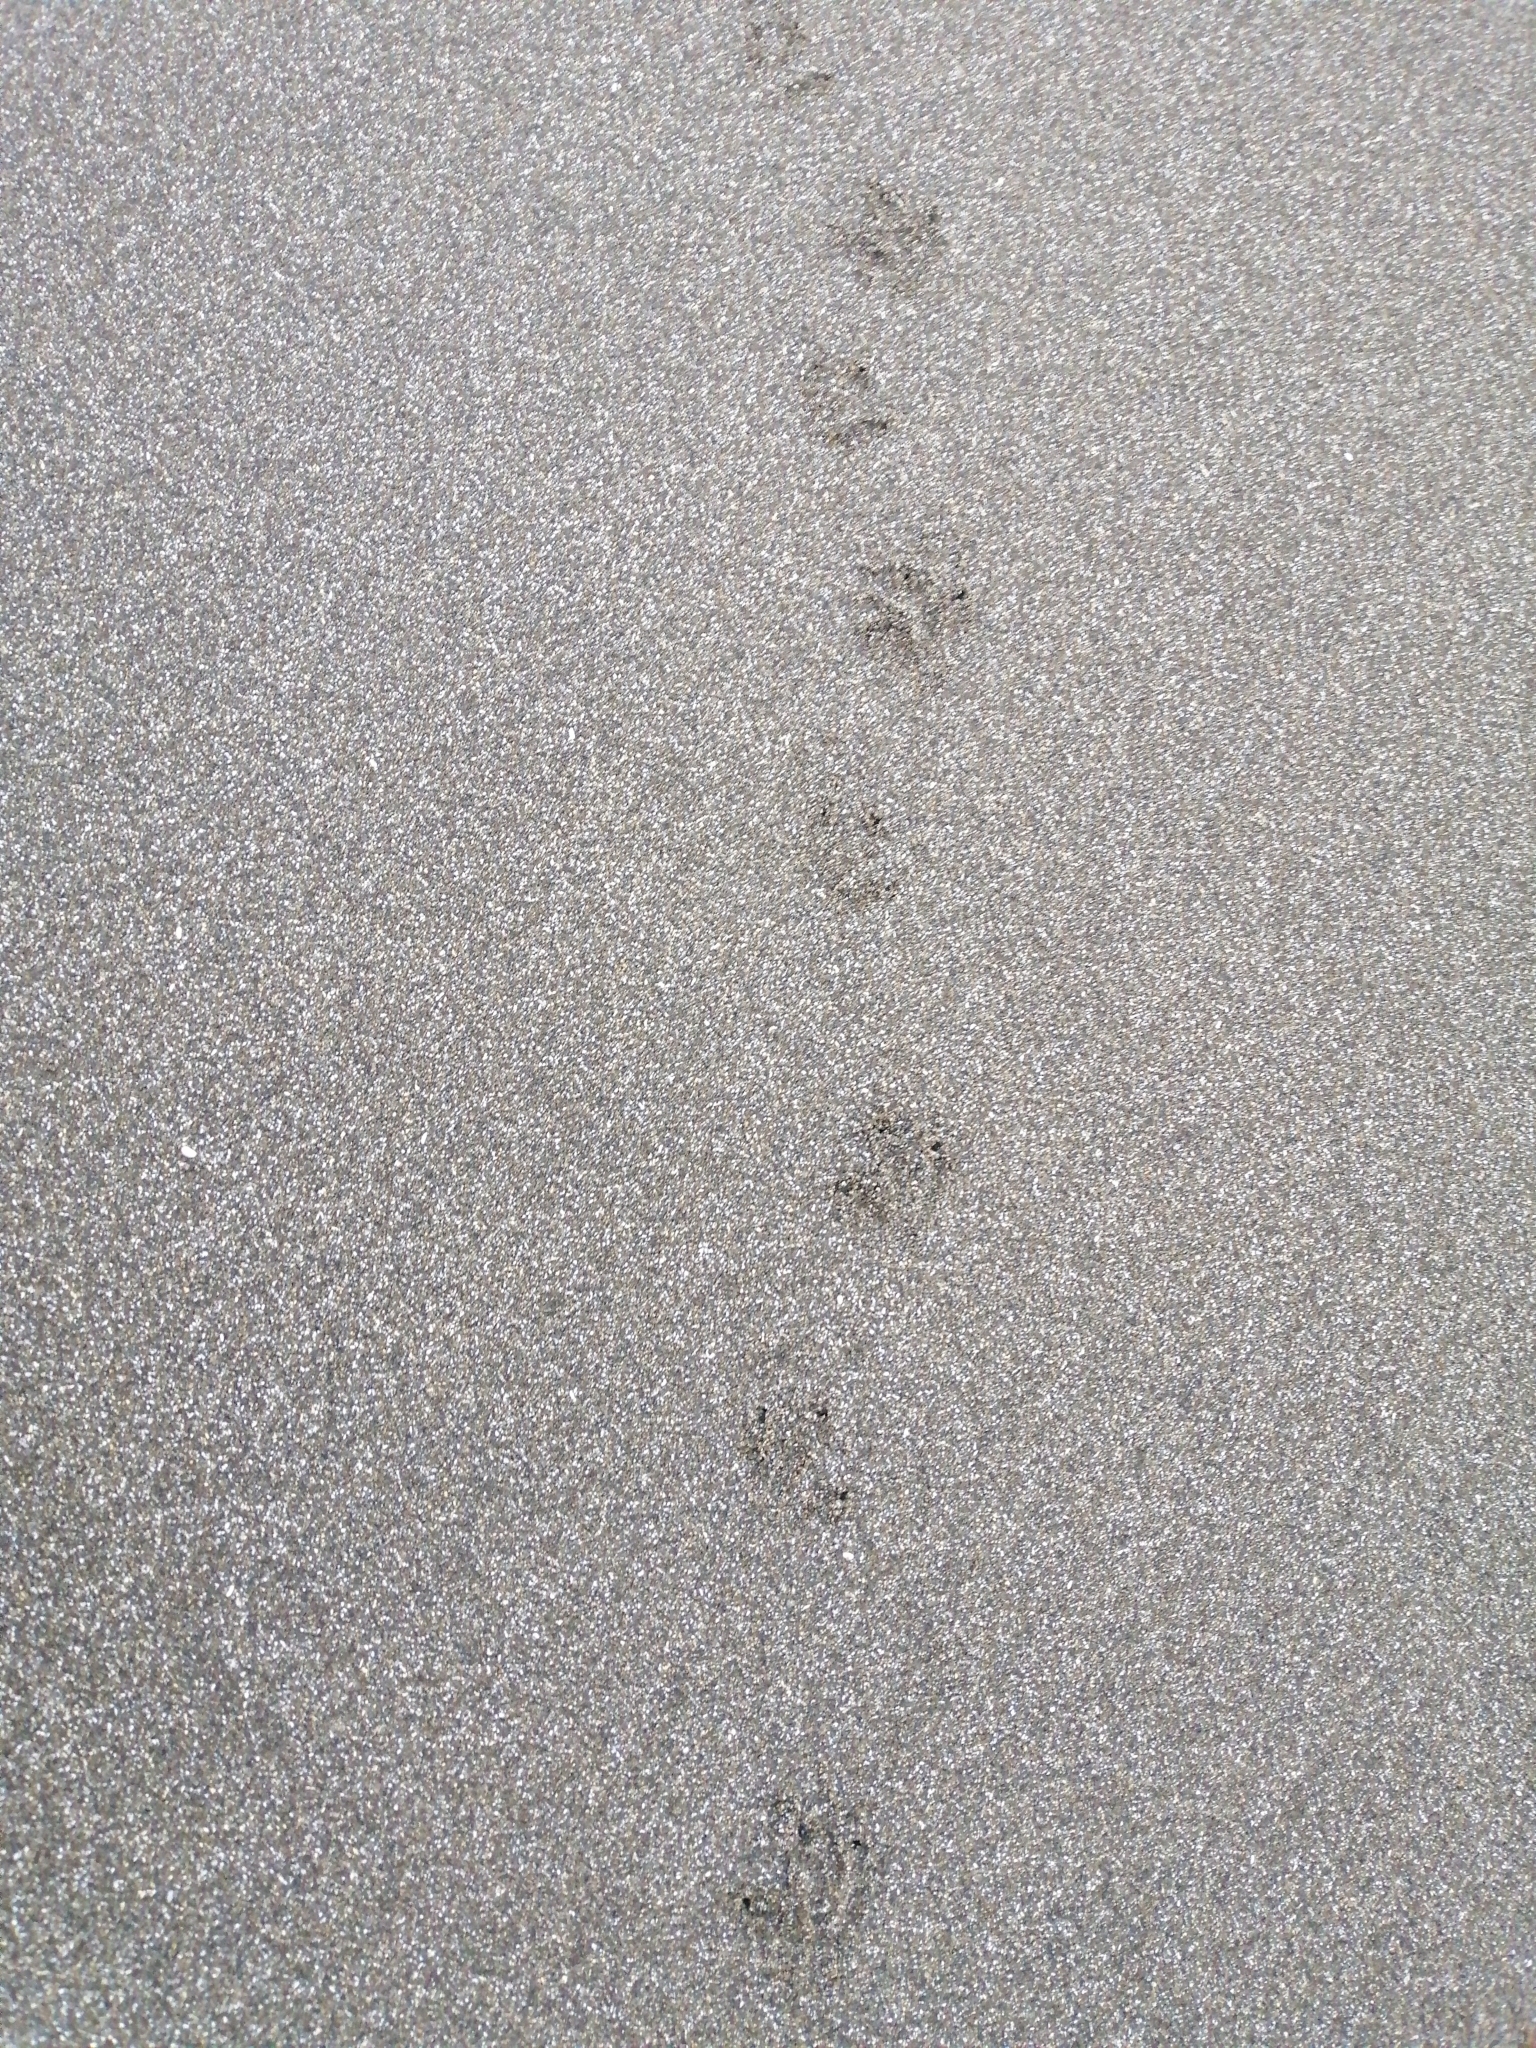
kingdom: Animalia
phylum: Chordata
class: Aves
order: Sphenisciformes
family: Spheniscidae
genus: Eudyptula
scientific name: Eudyptula minor
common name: Little penguin
